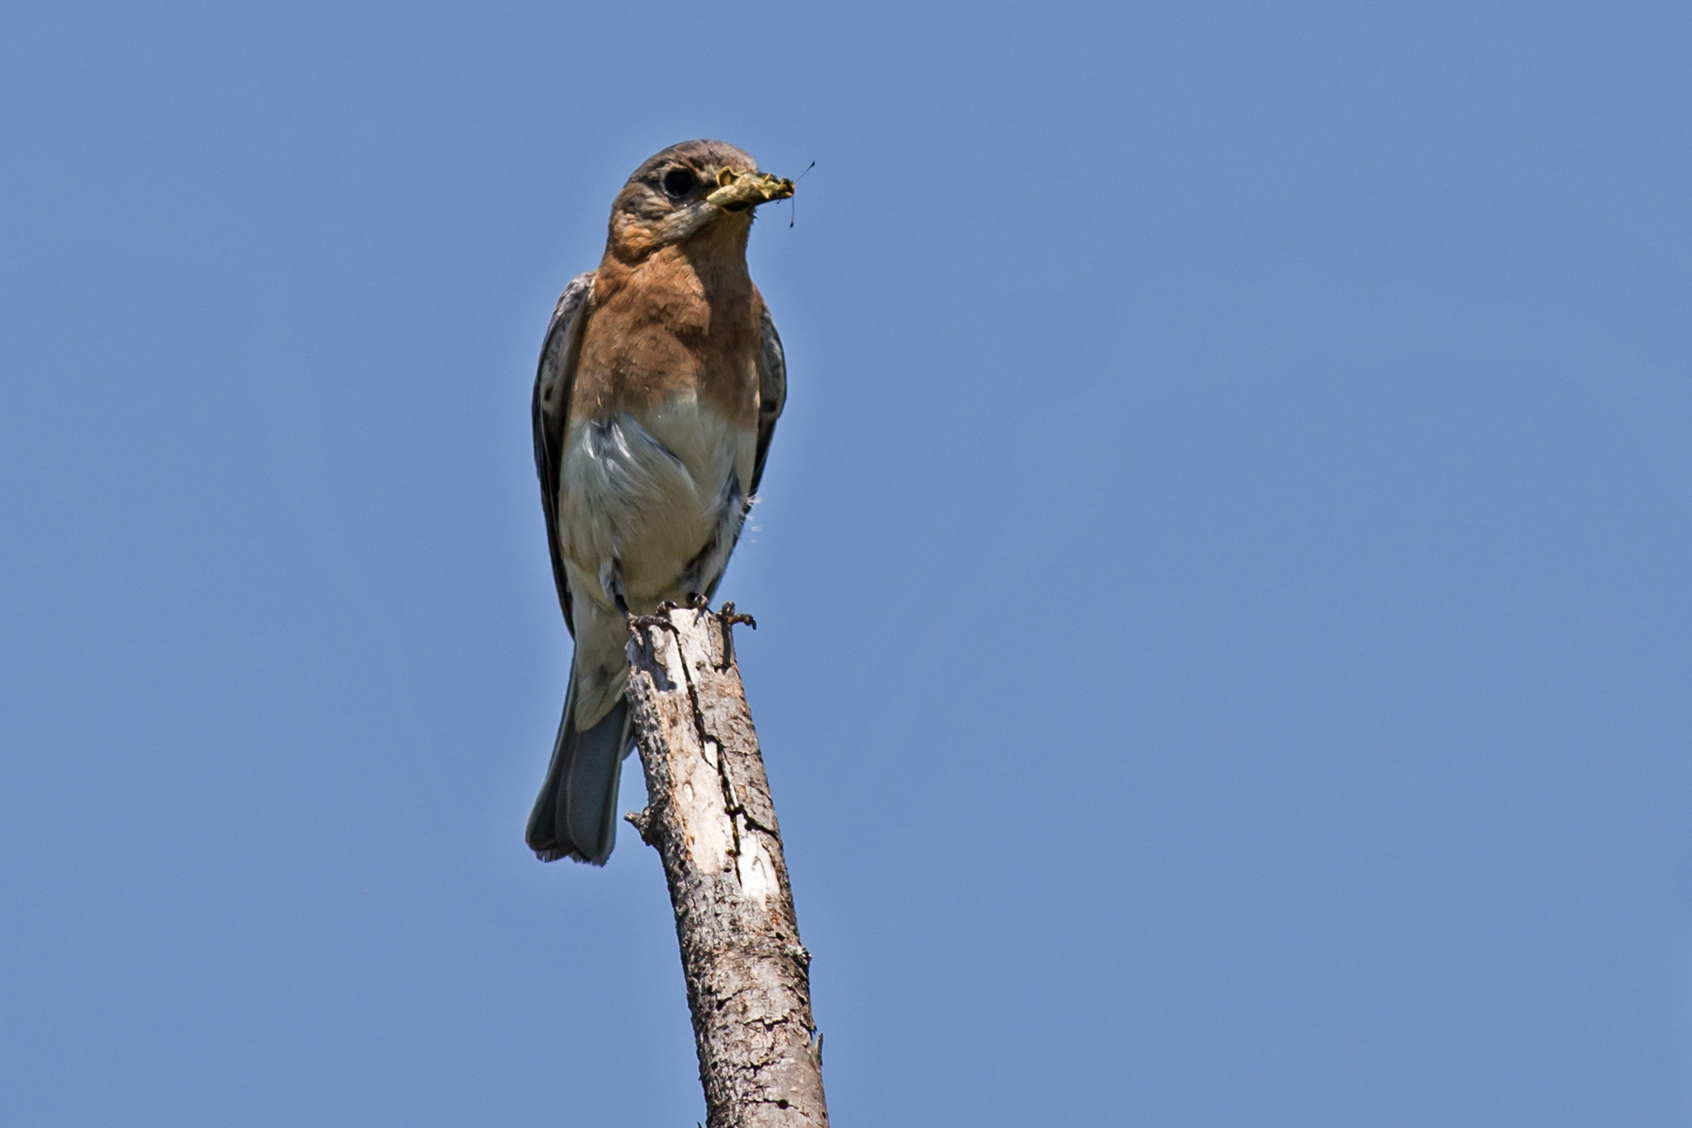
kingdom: Animalia
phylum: Chordata
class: Aves
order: Passeriformes
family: Turdidae
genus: Sialia
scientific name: Sialia sialis
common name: Eastern bluebird
